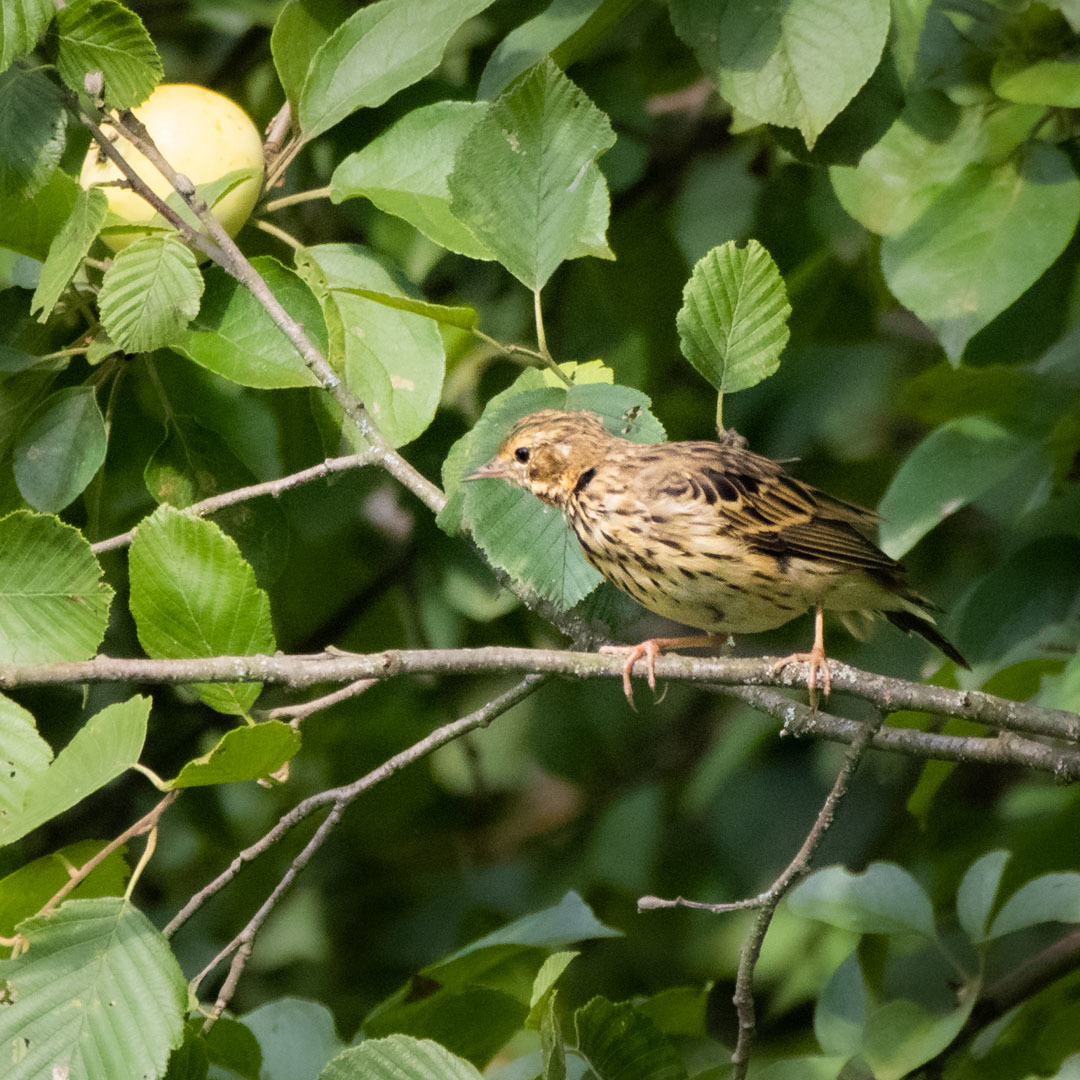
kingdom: Animalia
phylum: Chordata
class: Aves
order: Passeriformes
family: Motacillidae
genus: Anthus
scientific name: Anthus trivialis
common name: Tree pipit
